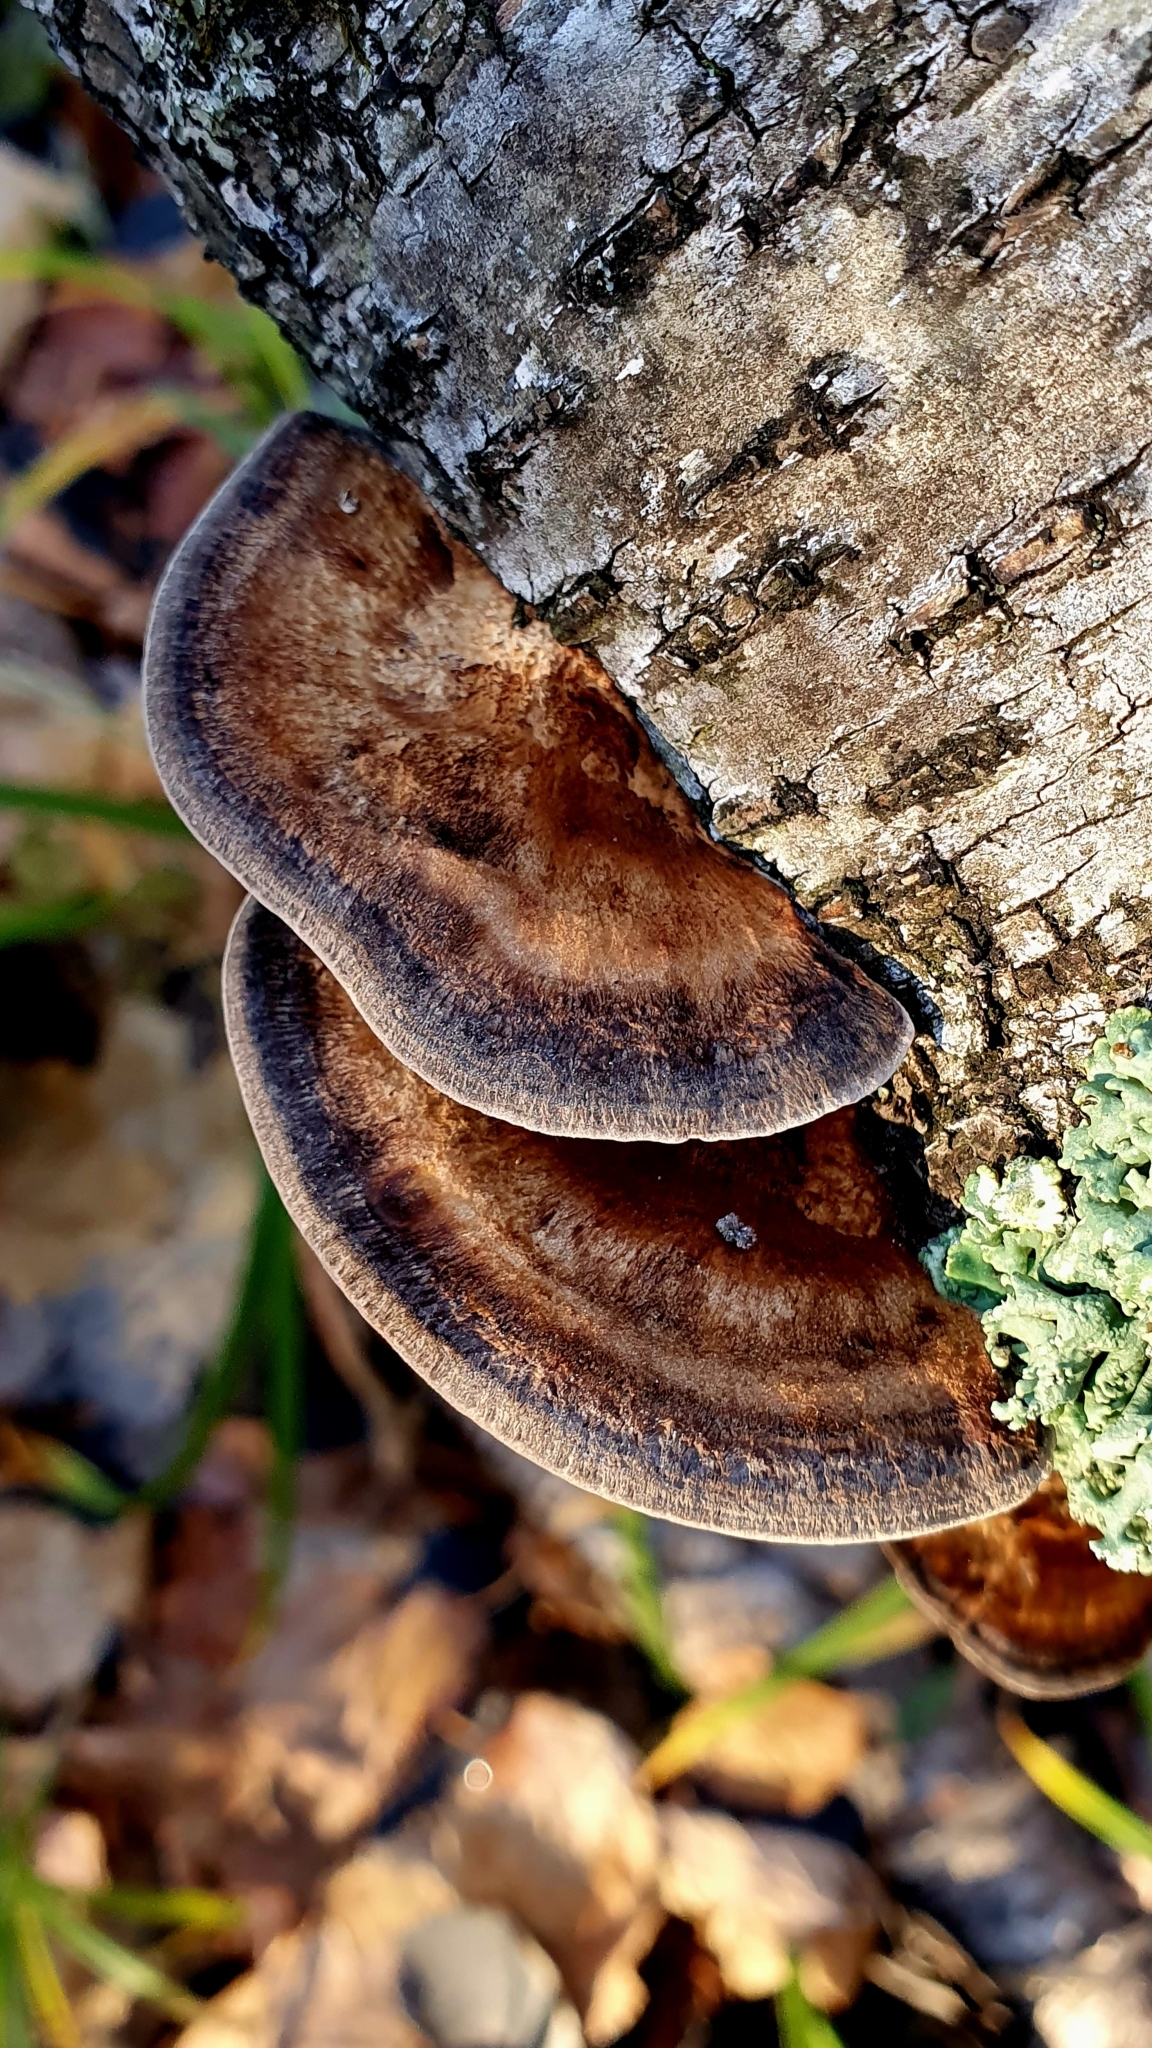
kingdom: Fungi
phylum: Basidiomycota
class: Agaricomycetes
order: Polyporales
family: Polyporaceae
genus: Daedaleopsis
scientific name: Daedaleopsis confragosa
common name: Blushing bracket
